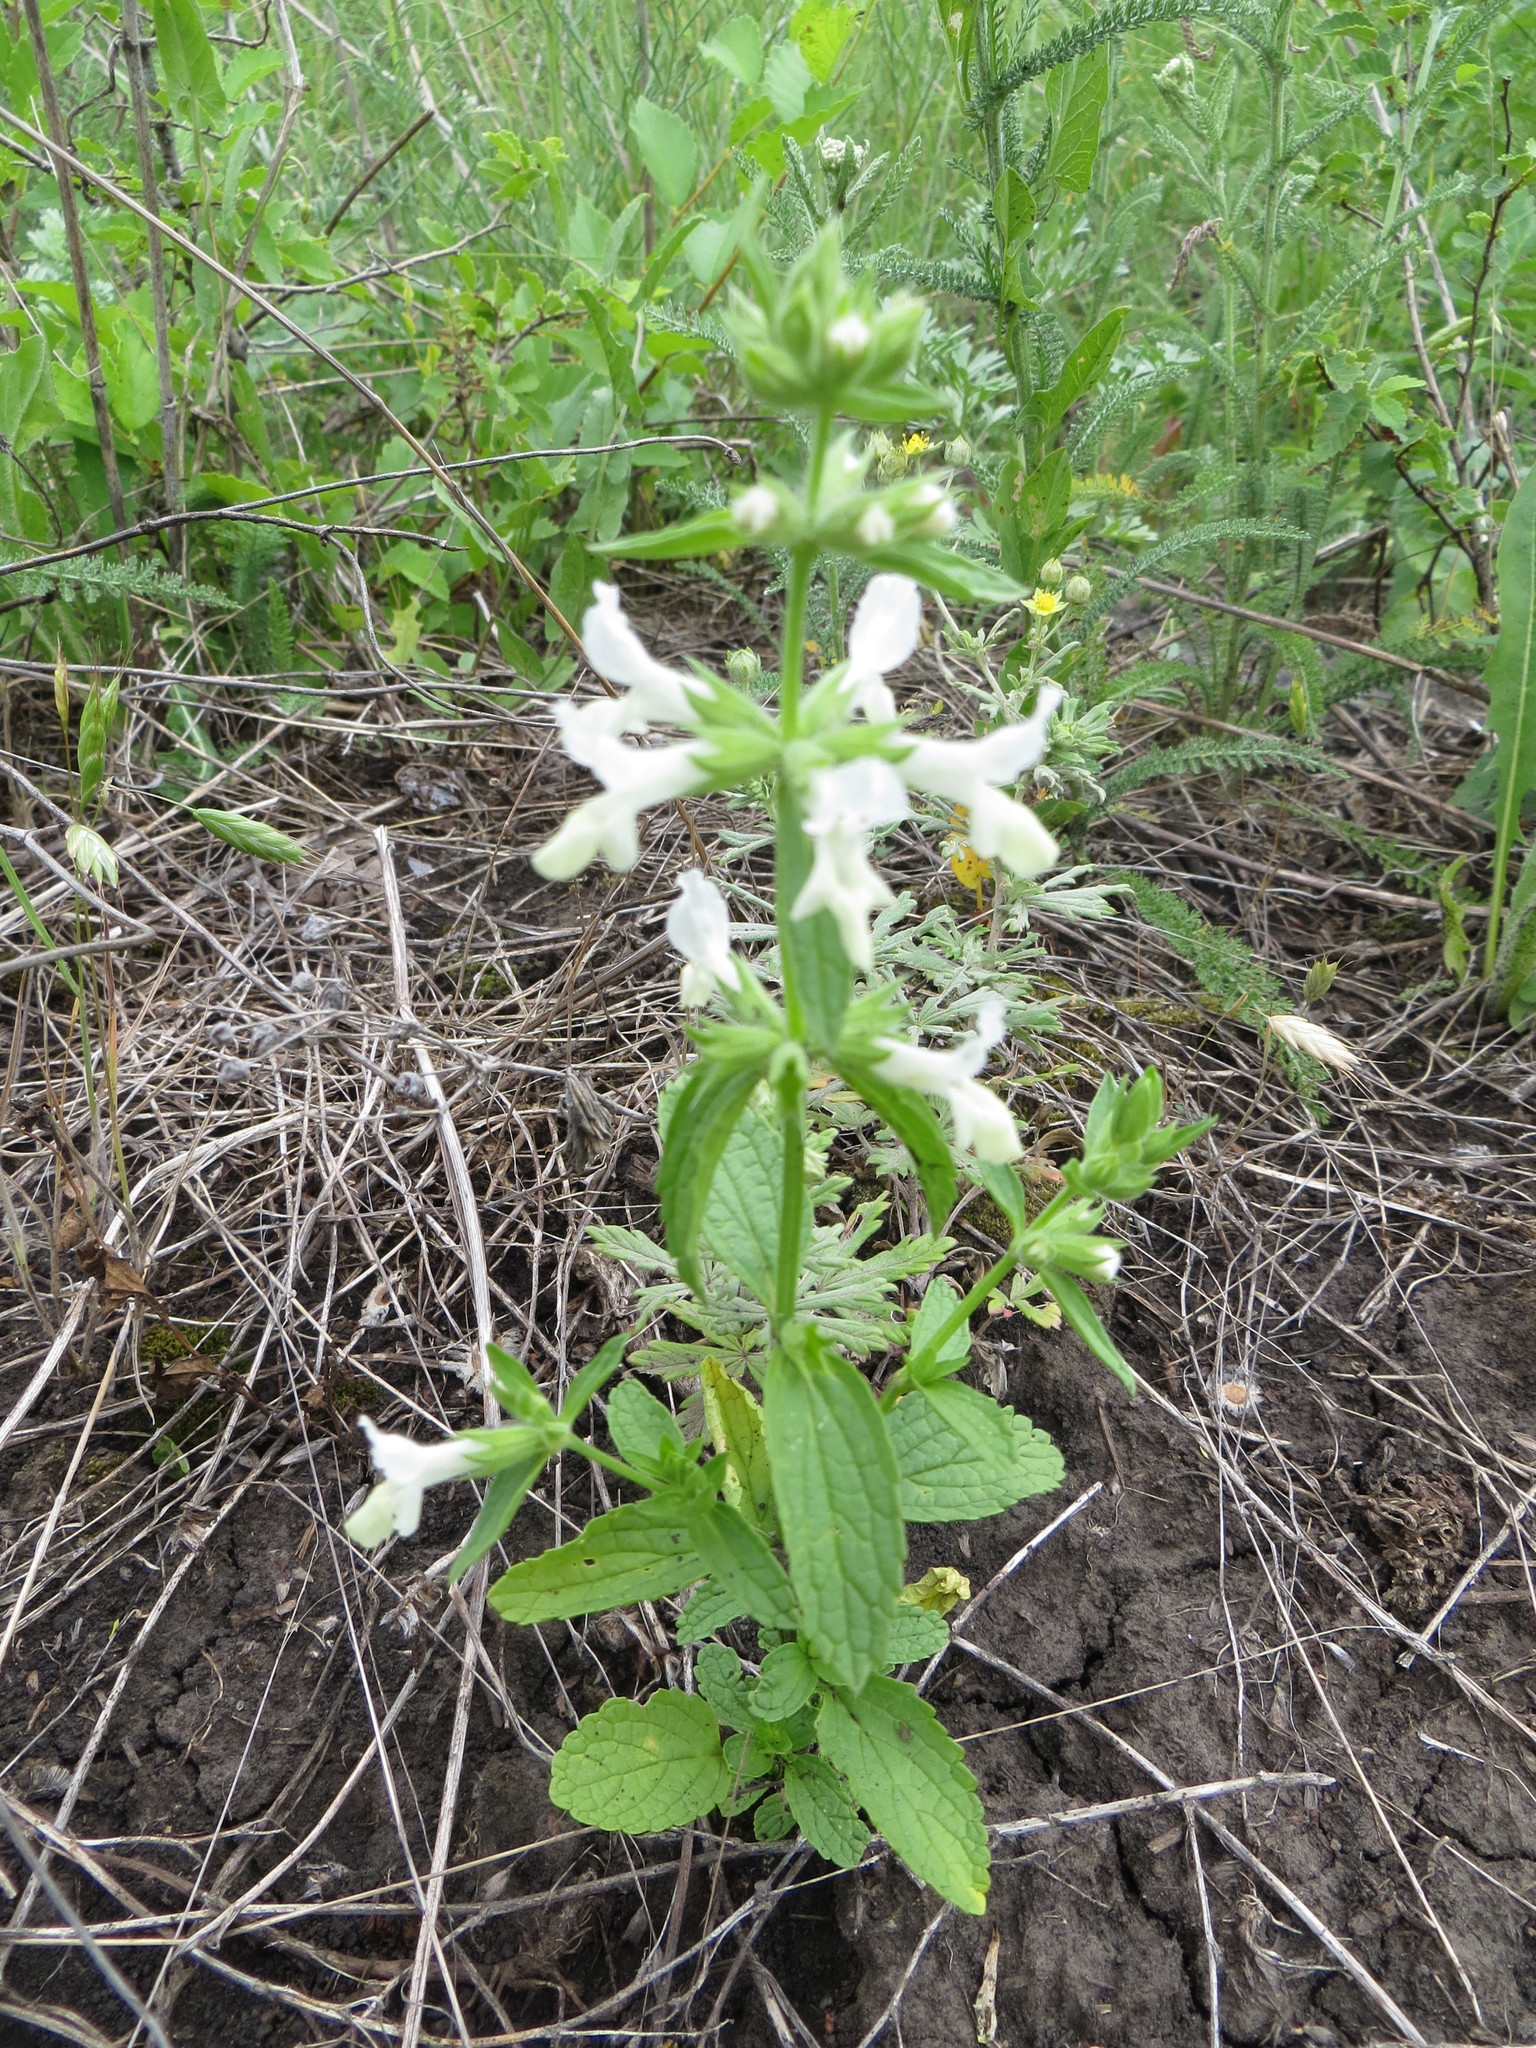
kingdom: Plantae
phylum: Tracheophyta
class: Magnoliopsida
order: Lamiales
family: Lamiaceae
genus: Stachys
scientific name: Stachys annua
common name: Annual yellow-woundwort
